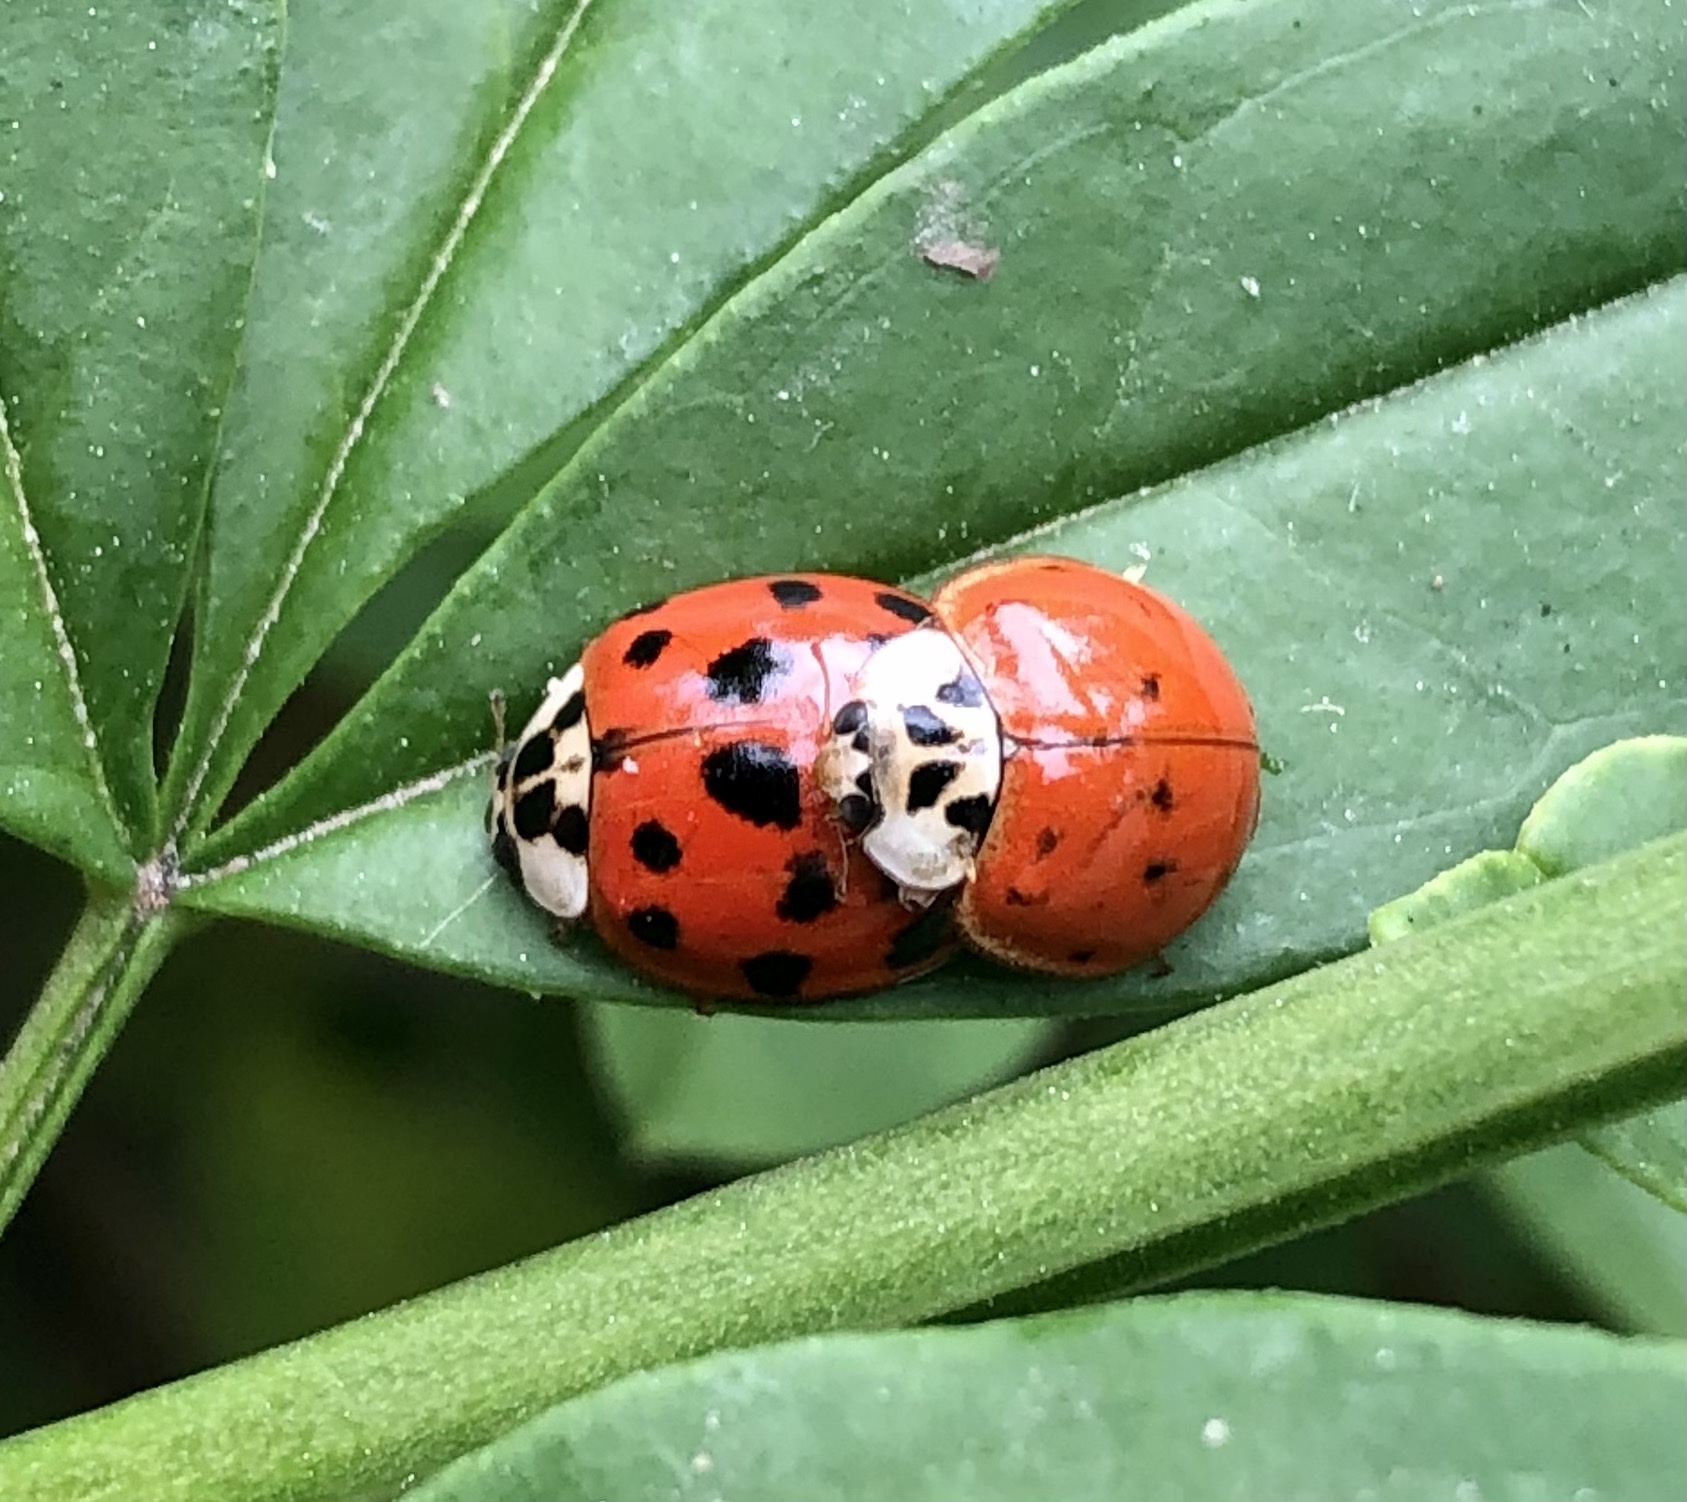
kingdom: Animalia
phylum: Arthropoda
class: Insecta
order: Coleoptera
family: Coccinellidae
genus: Harmonia
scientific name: Harmonia axyridis
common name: Harlequin ladybird
